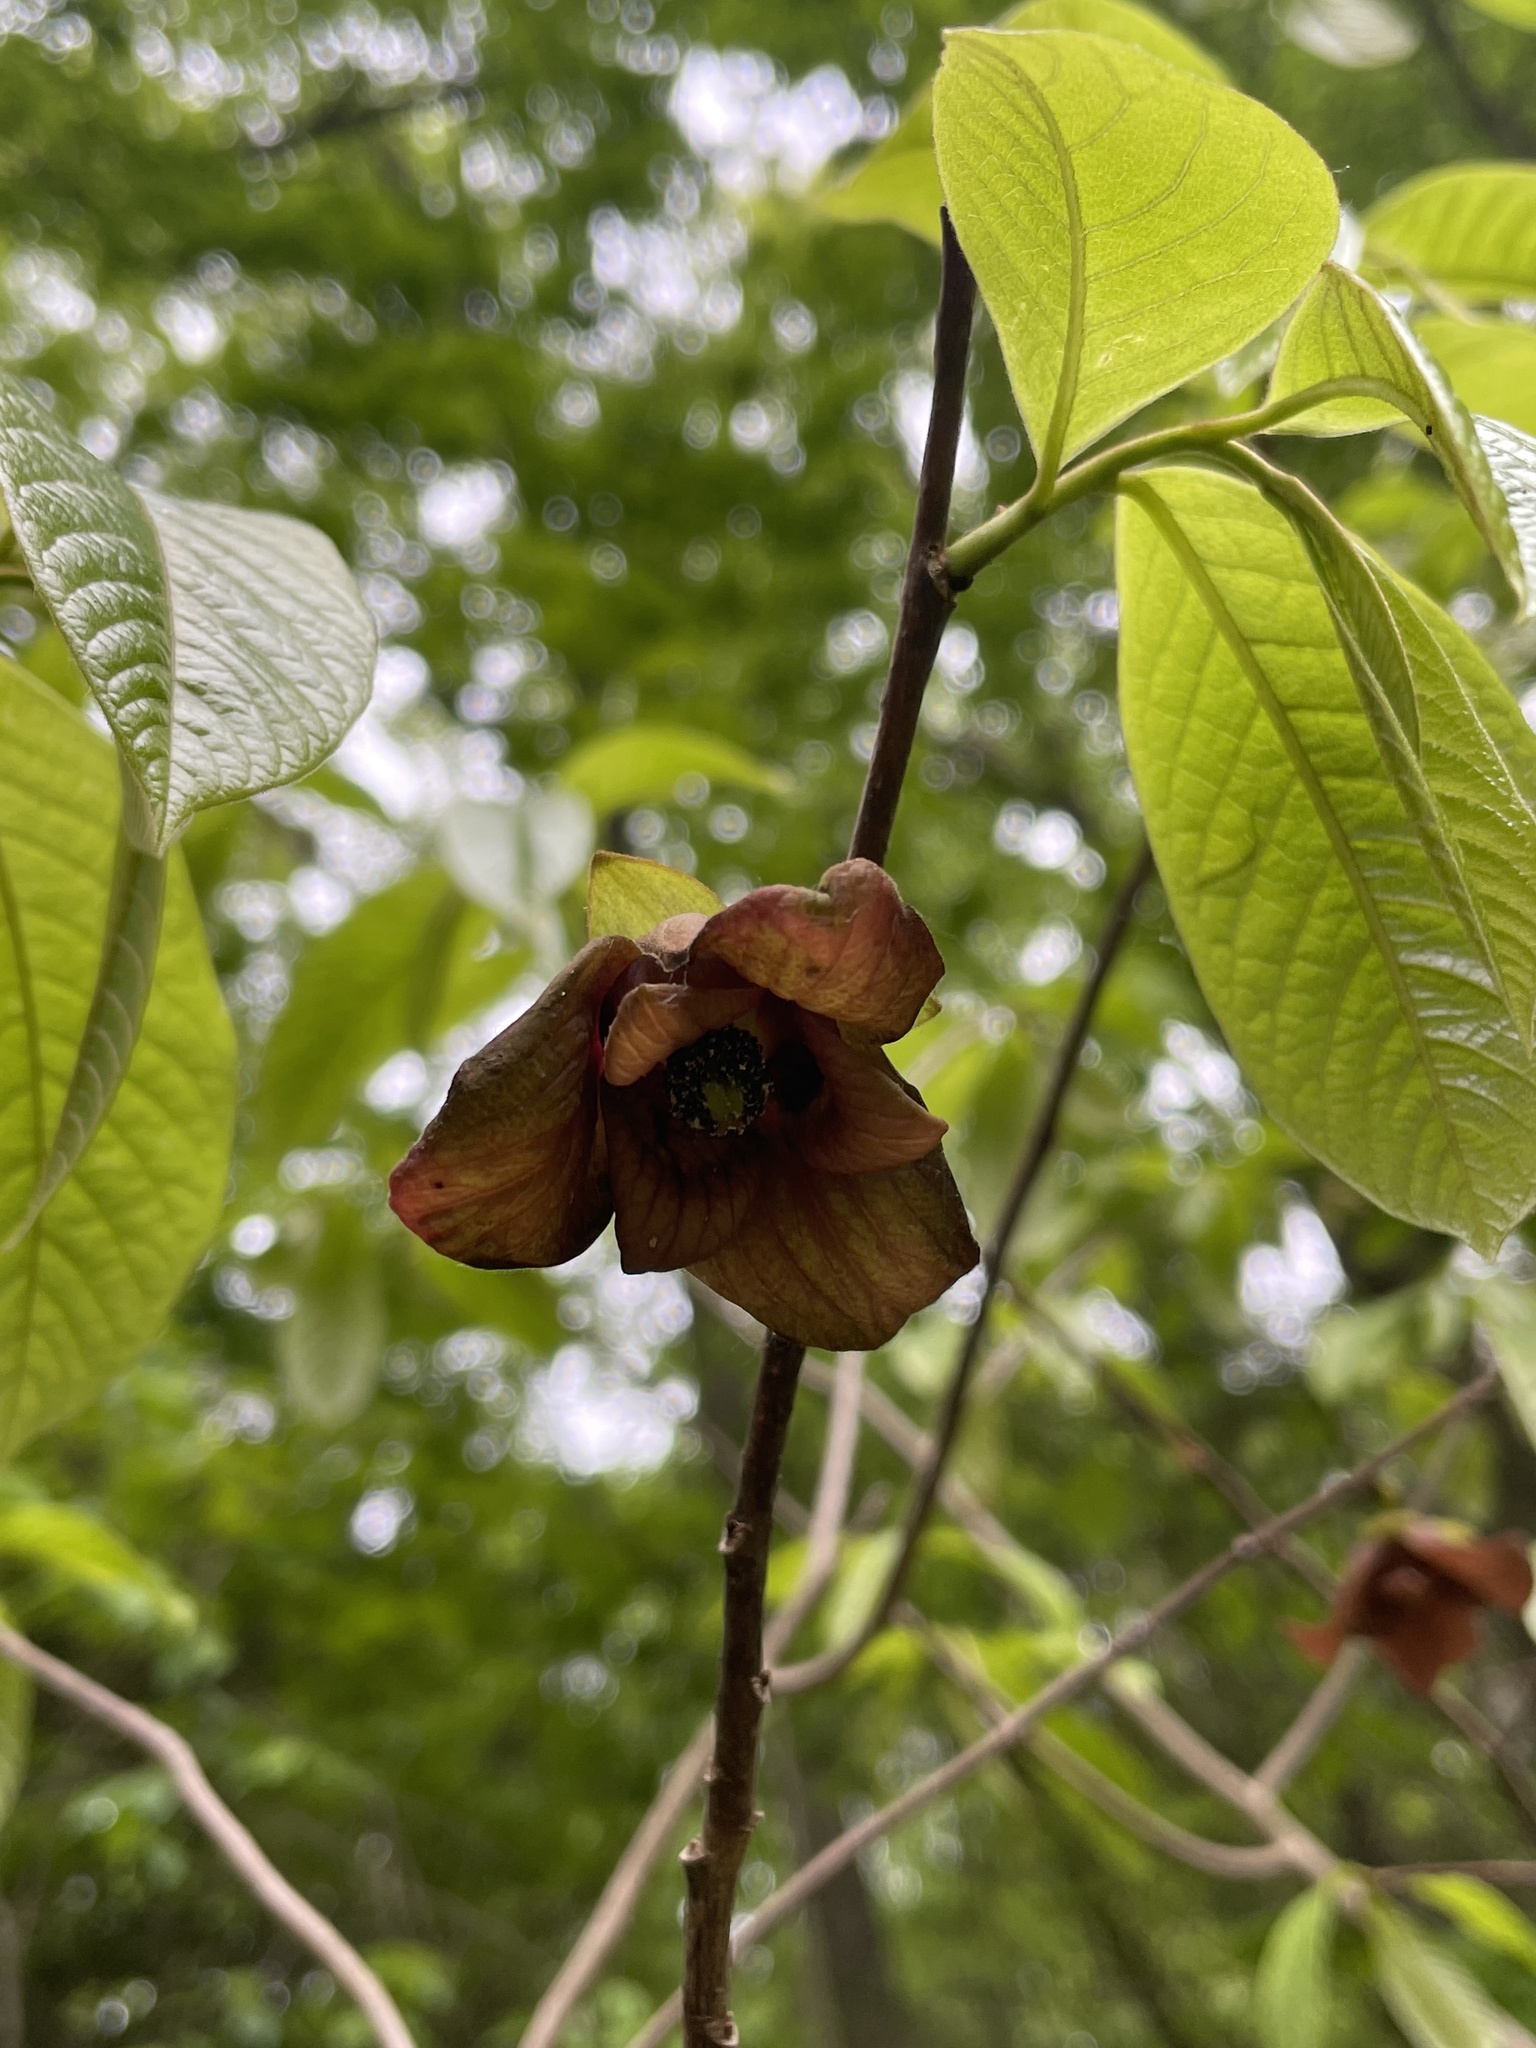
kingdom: Plantae
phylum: Tracheophyta
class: Magnoliopsida
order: Magnoliales
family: Annonaceae
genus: Asimina
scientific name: Asimina triloba
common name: Dog-banana
